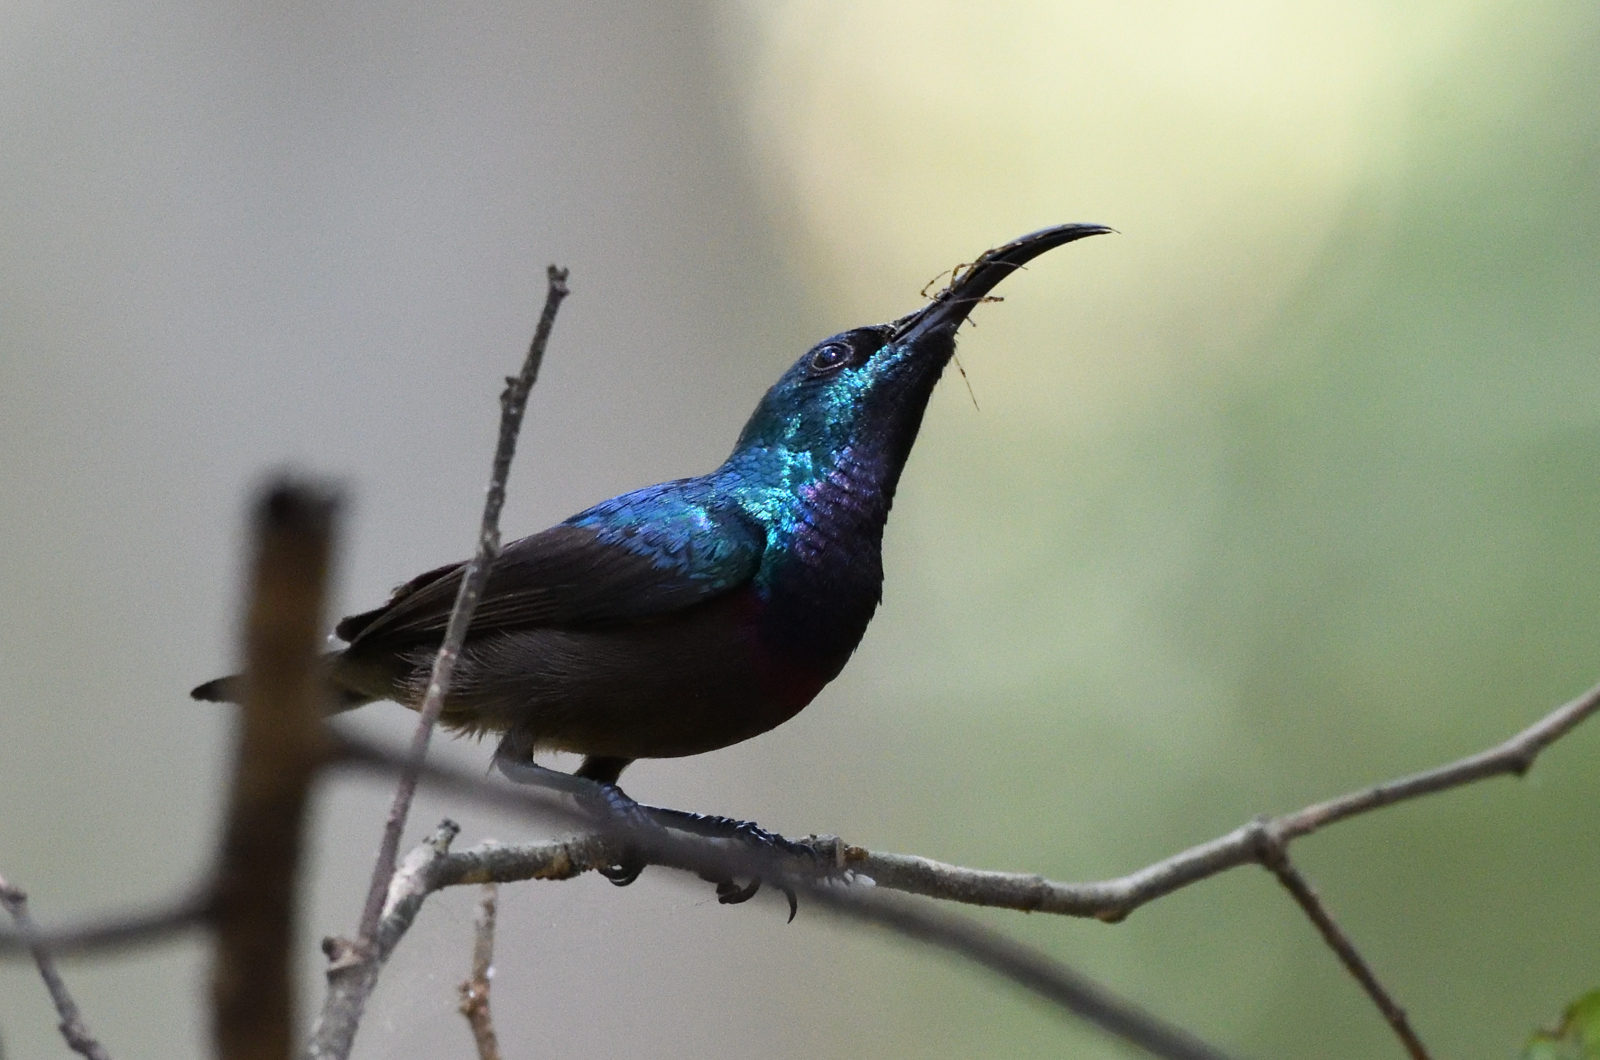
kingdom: Animalia
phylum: Chordata
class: Aves
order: Passeriformes
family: Nectariniidae
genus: Cinnyris
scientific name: Cinnyris lotenius
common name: Loten's sunbird
